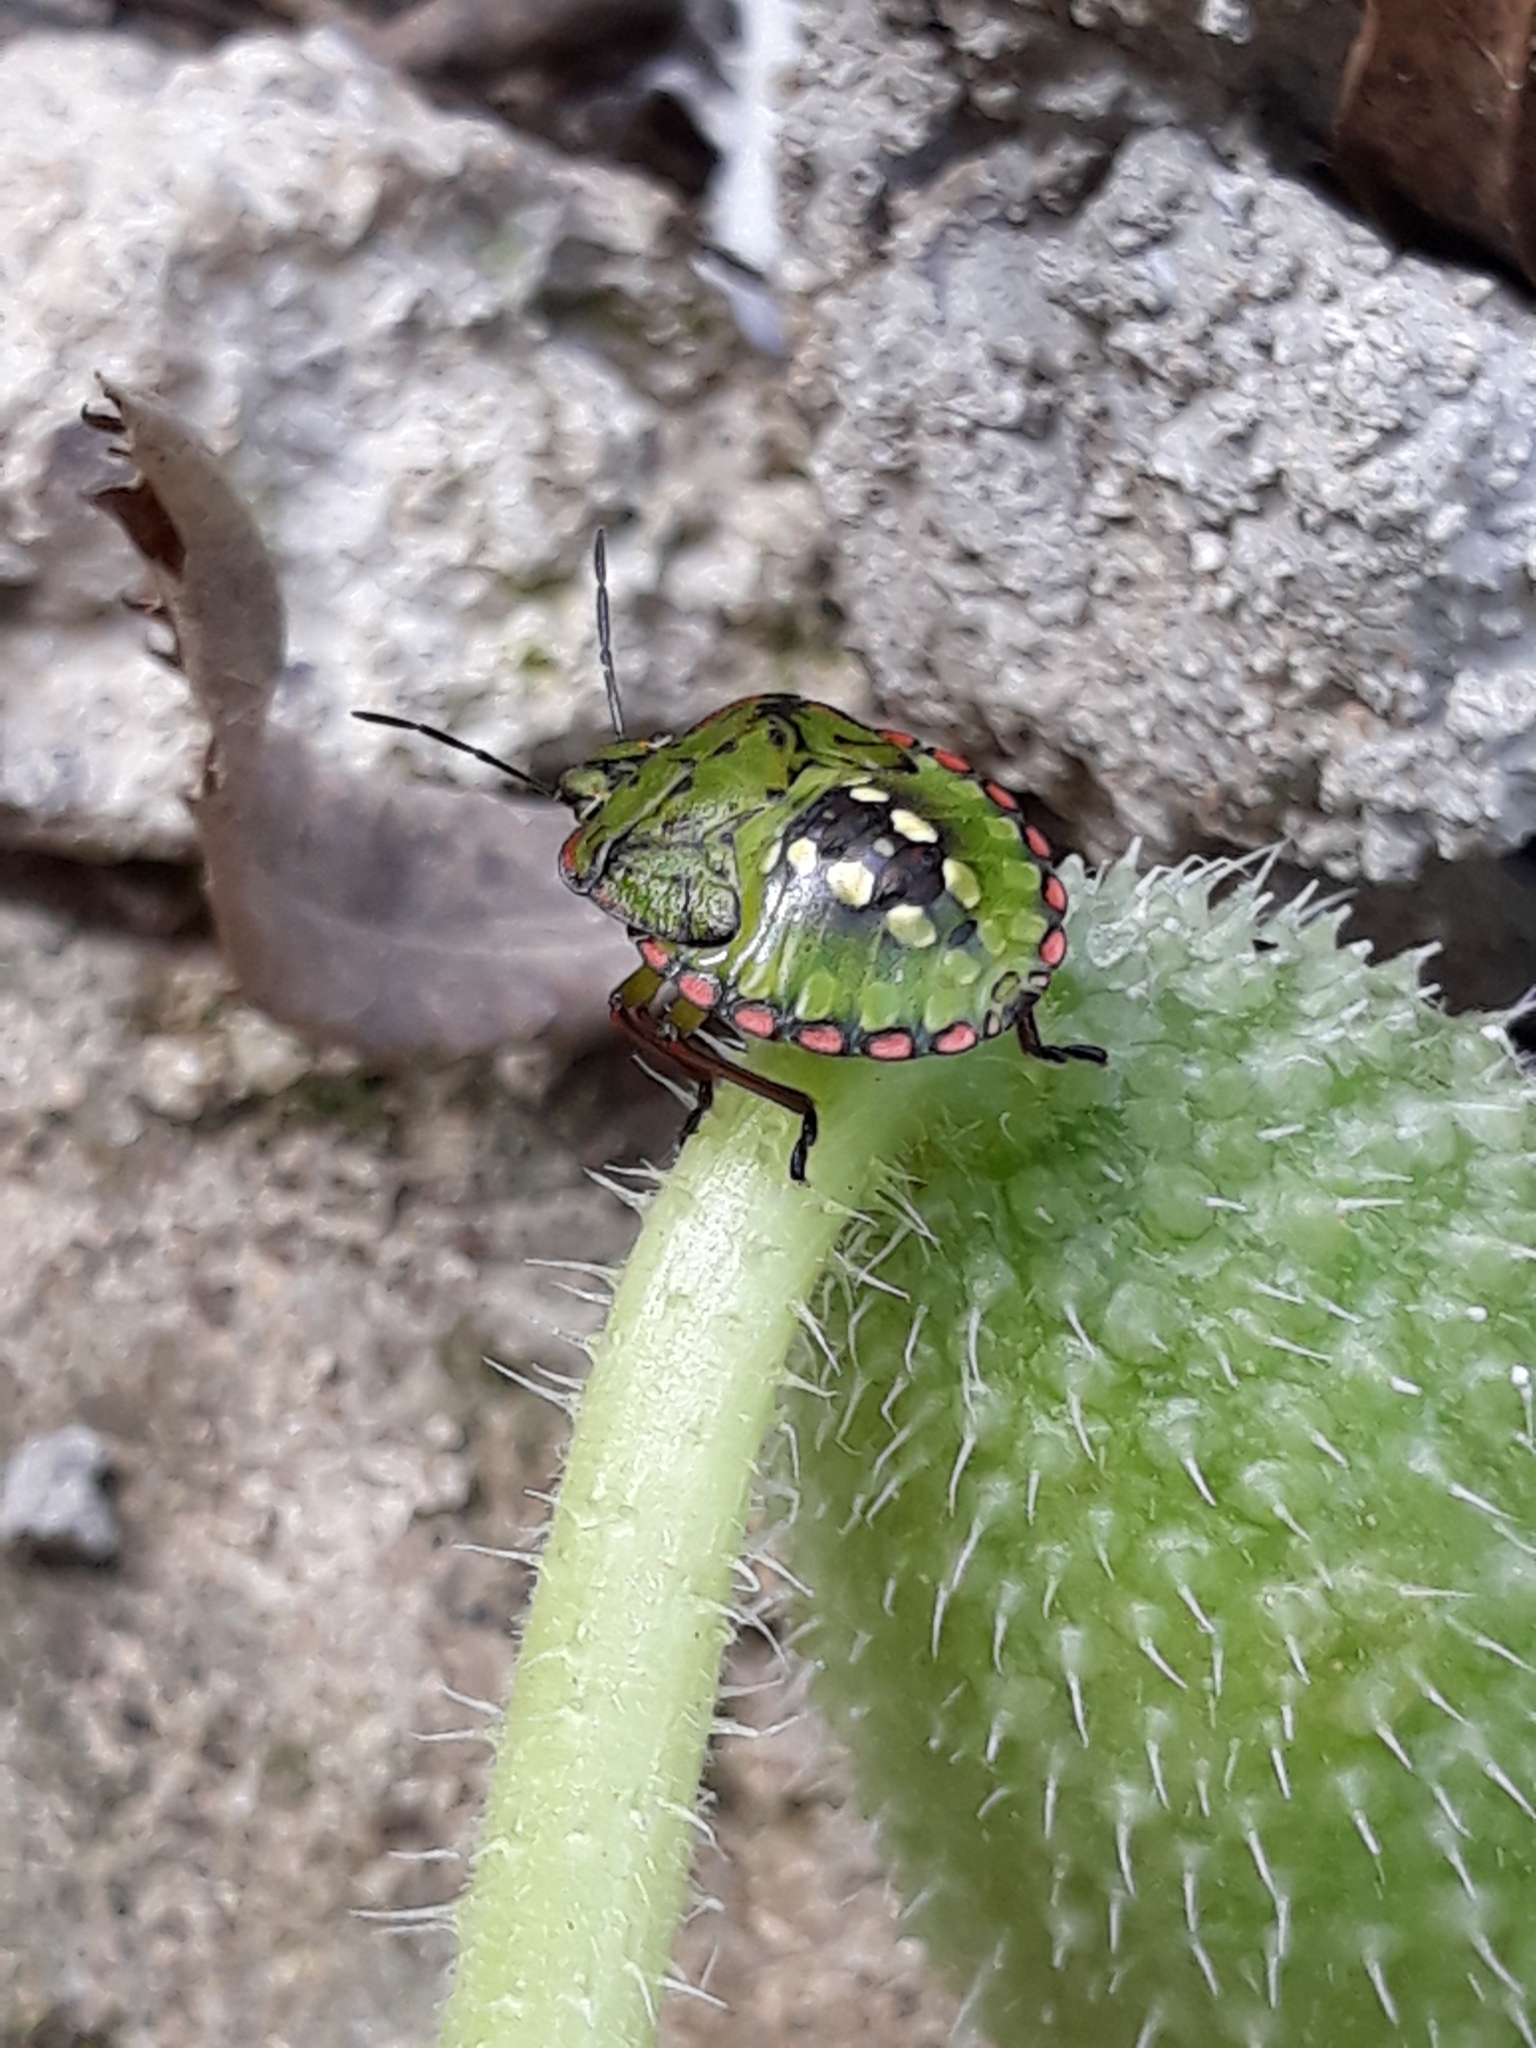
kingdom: Animalia
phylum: Arthropoda
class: Insecta
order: Hemiptera
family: Pentatomidae
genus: Nezara
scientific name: Nezara viridula
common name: Southern green stink bug
